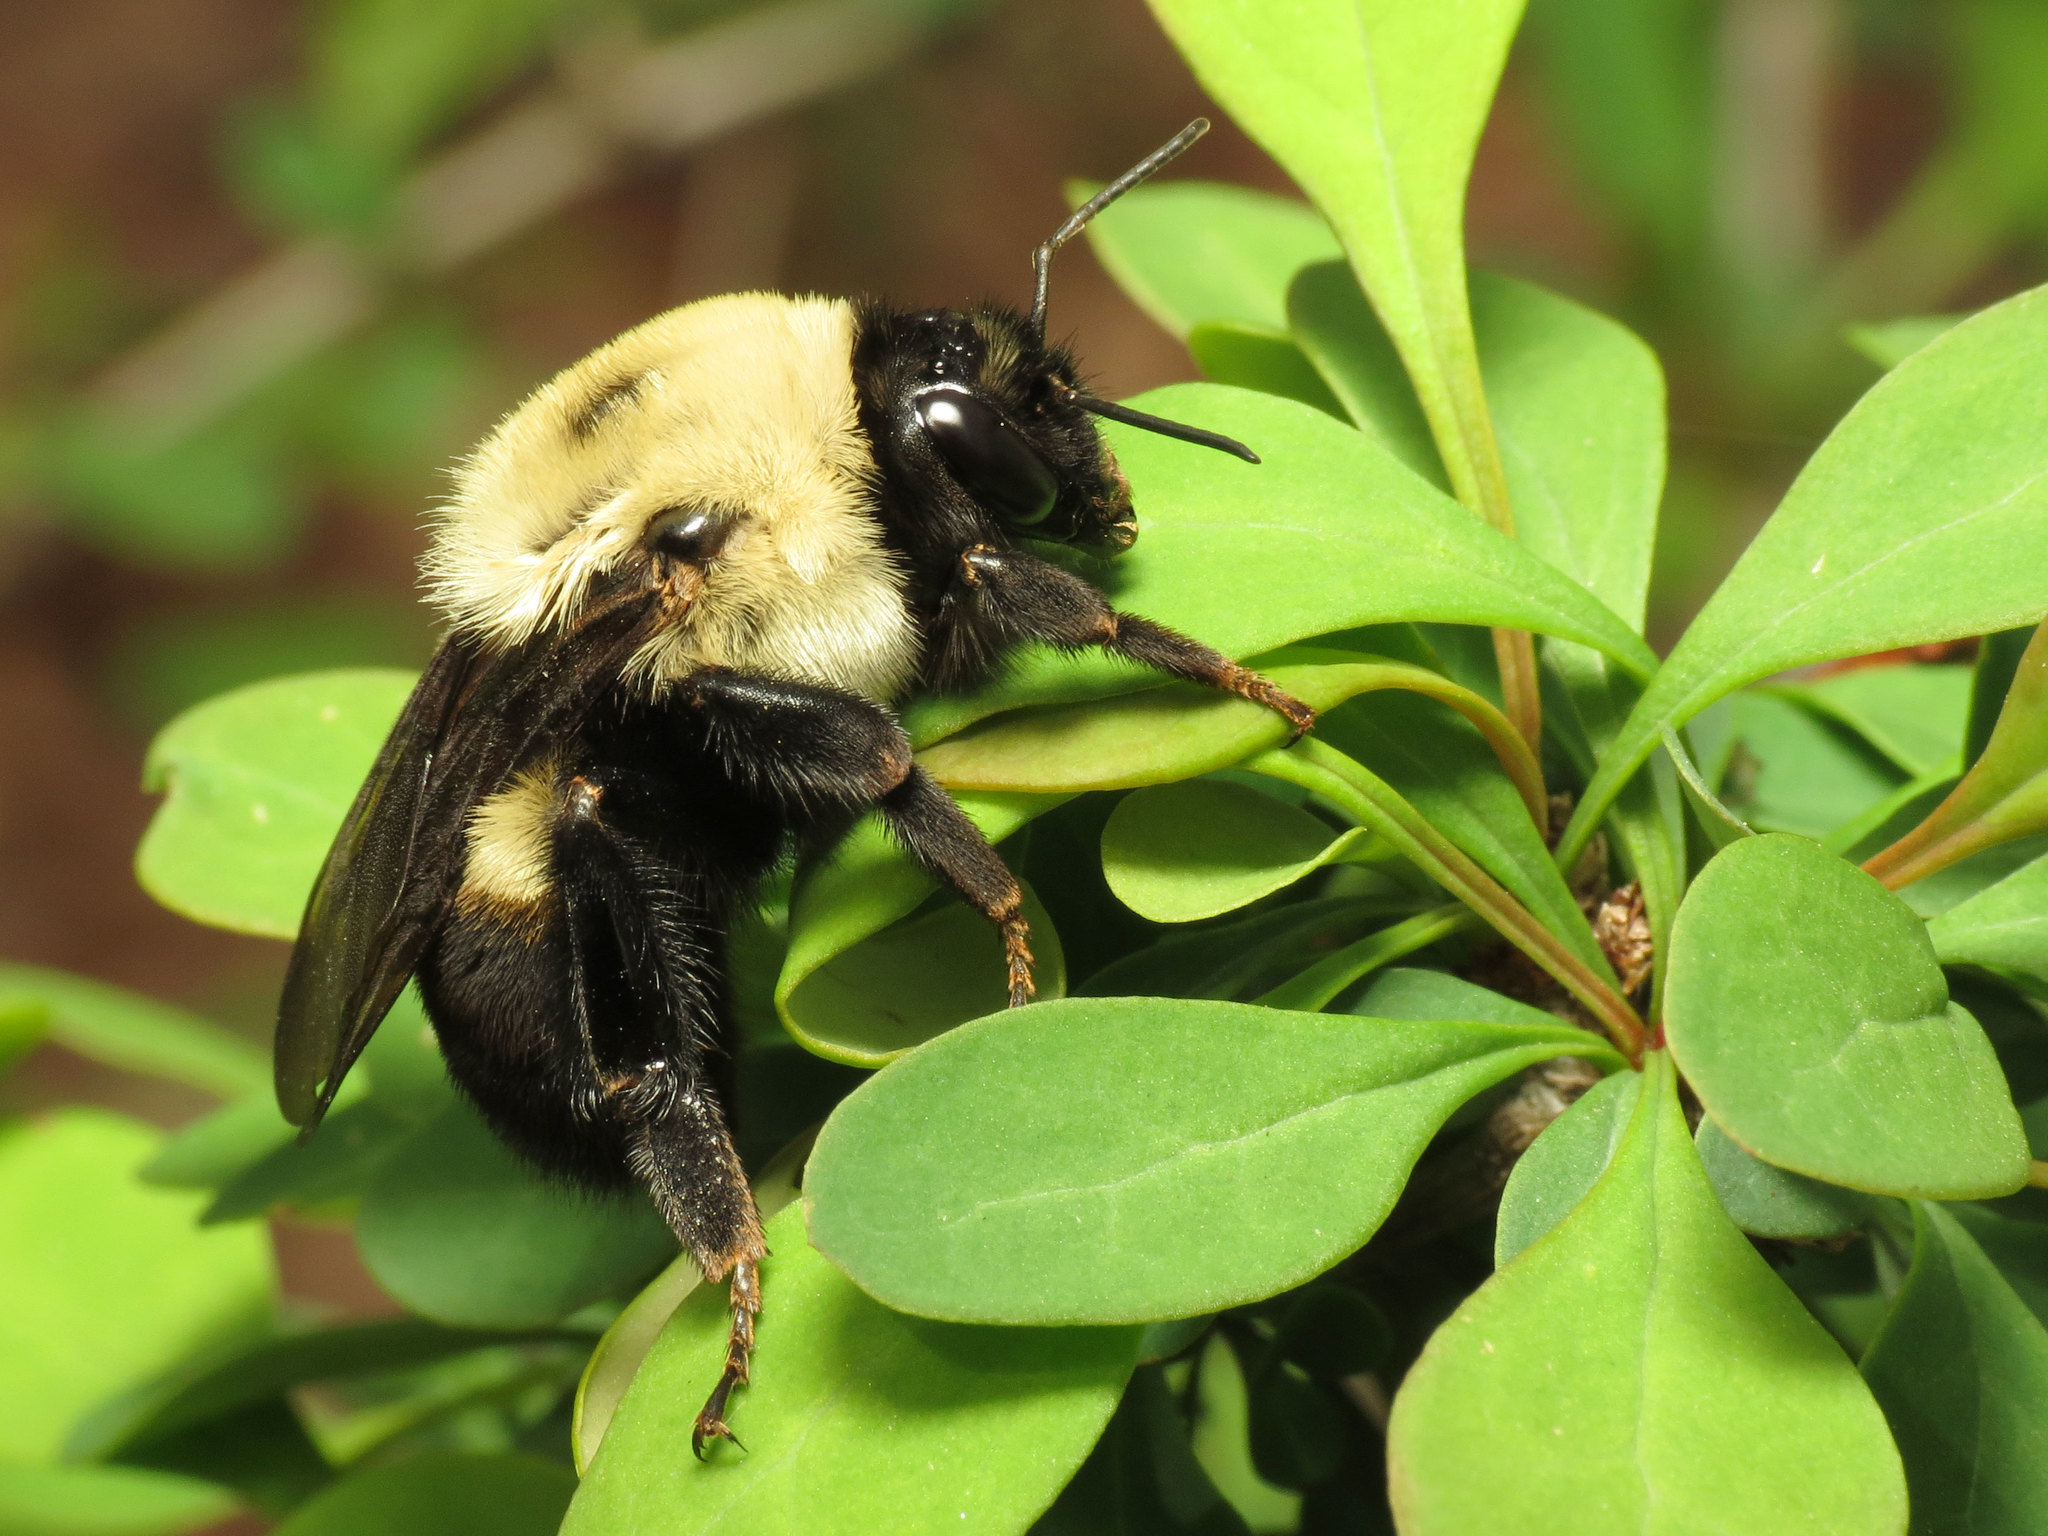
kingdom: Animalia
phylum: Arthropoda
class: Insecta
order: Hymenoptera
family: Apidae
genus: Bombus
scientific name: Bombus griseocollis
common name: Brown-belted bumble bee
